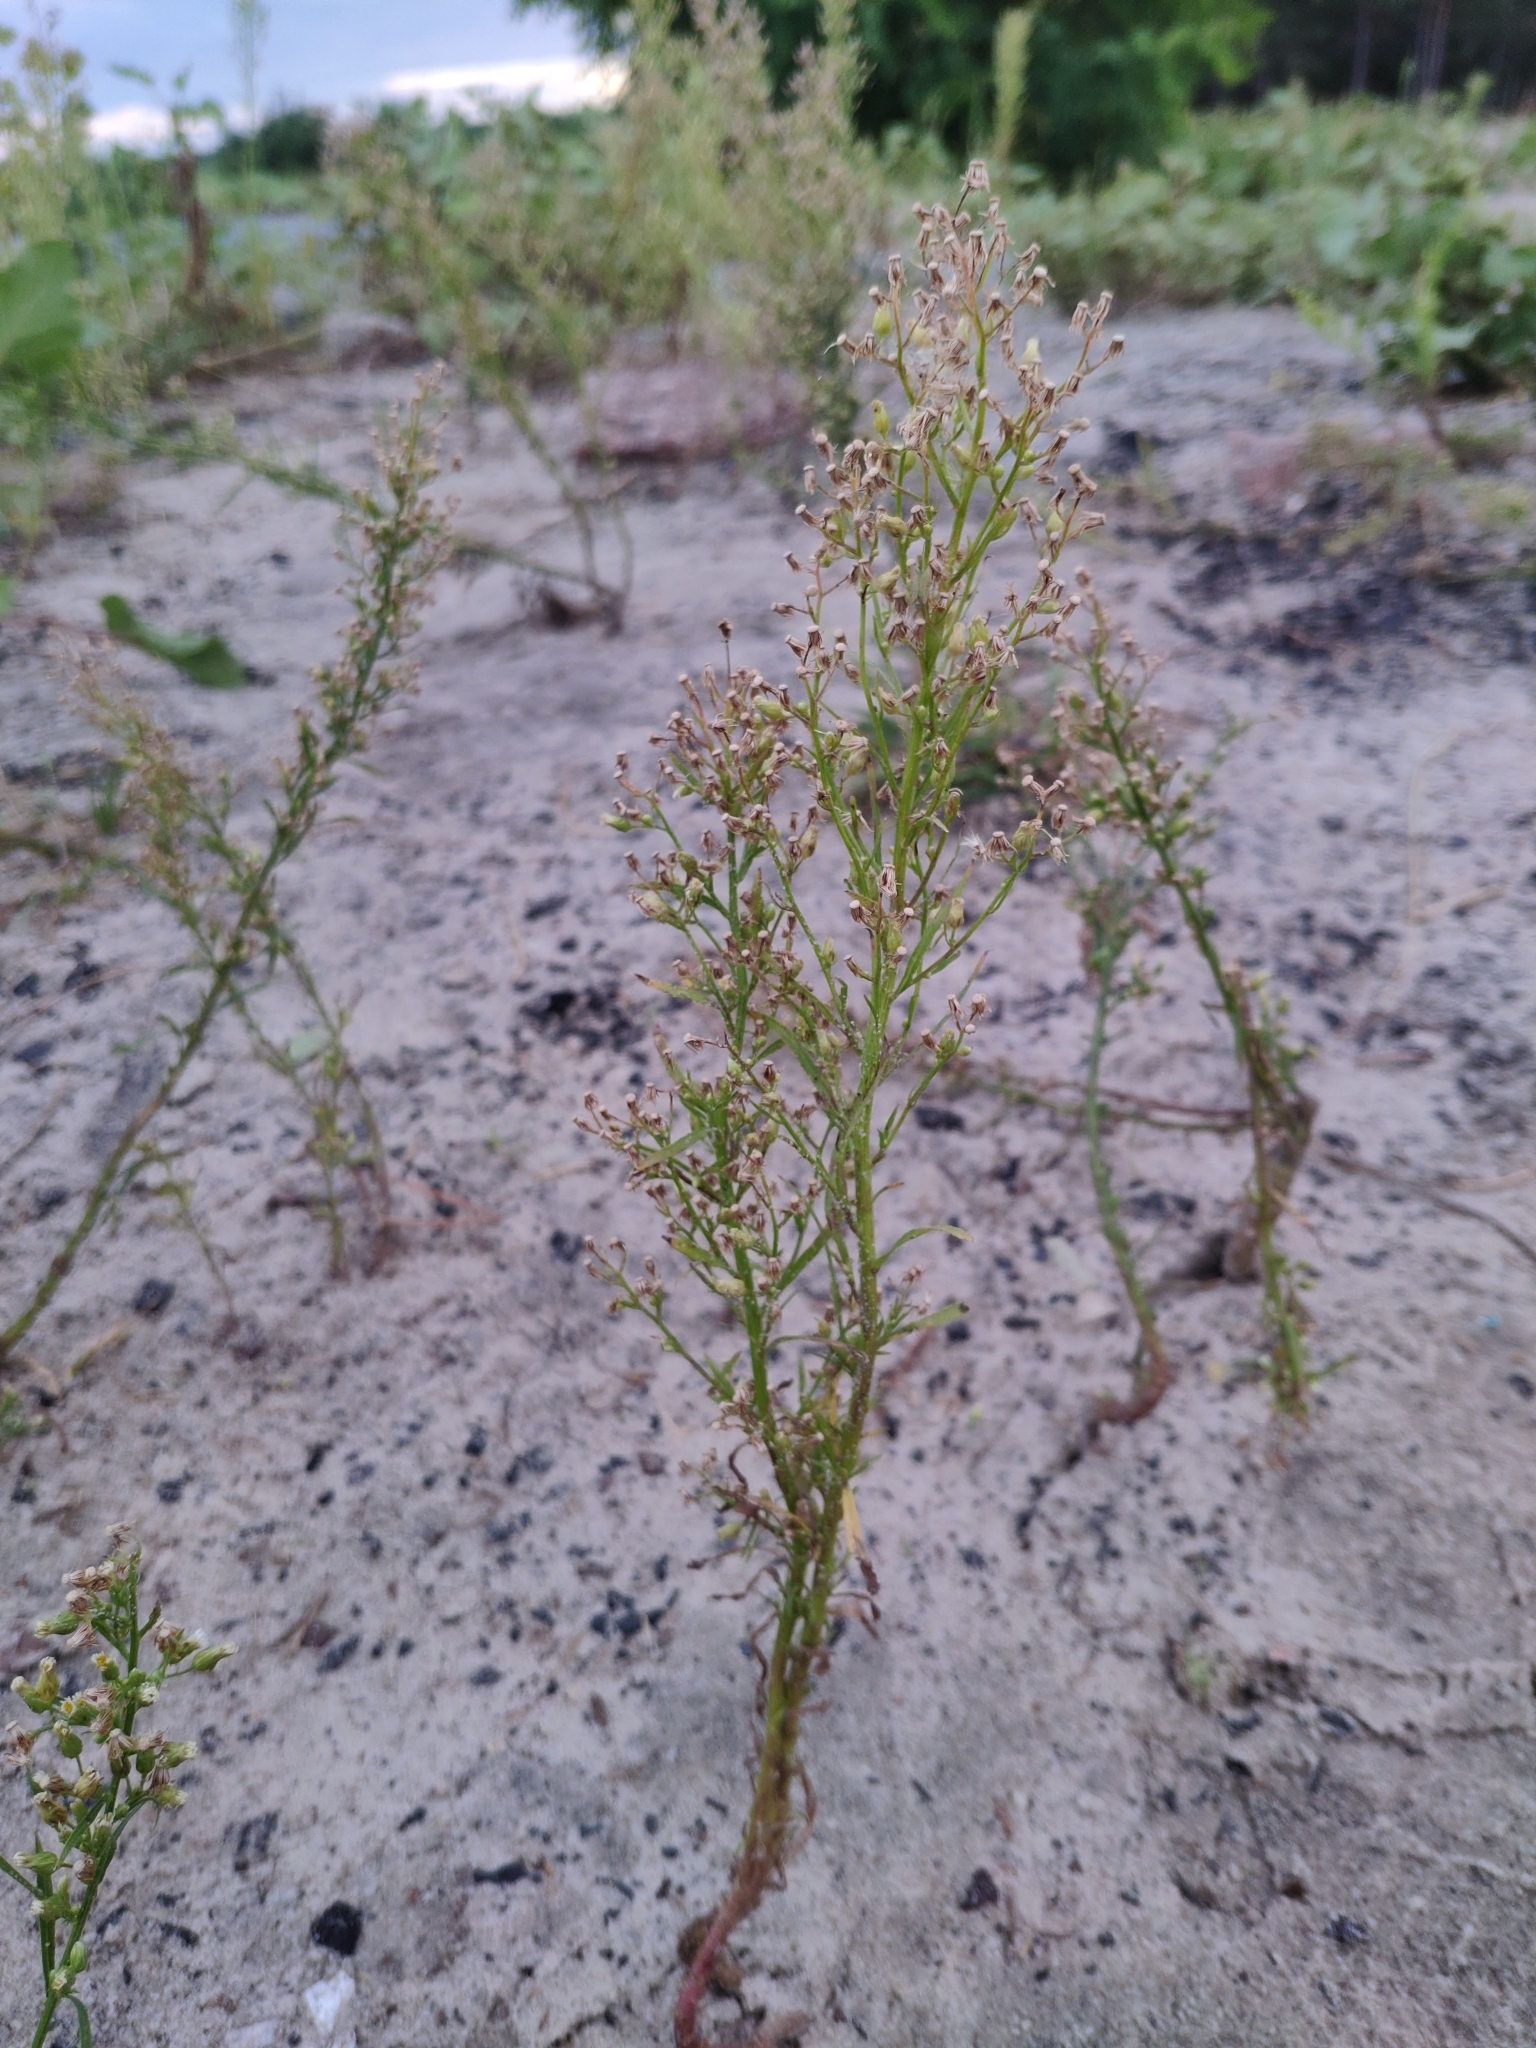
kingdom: Plantae
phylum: Tracheophyta
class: Magnoliopsida
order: Asterales
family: Asteraceae
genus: Erigeron
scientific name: Erigeron canadensis
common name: Canadian fleabane
